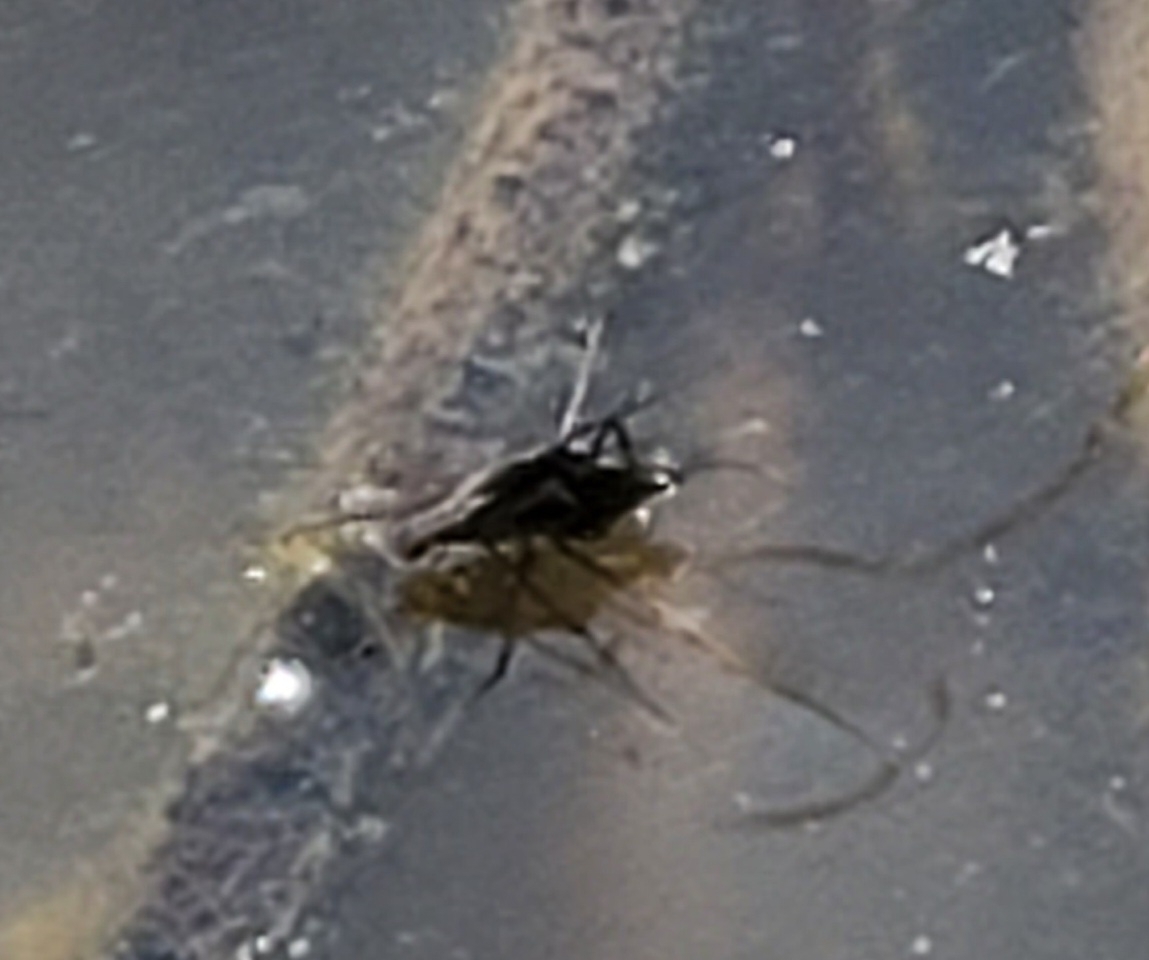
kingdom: Animalia
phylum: Arthropoda
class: Insecta
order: Hemiptera
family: Gerridae
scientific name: Gerridae
